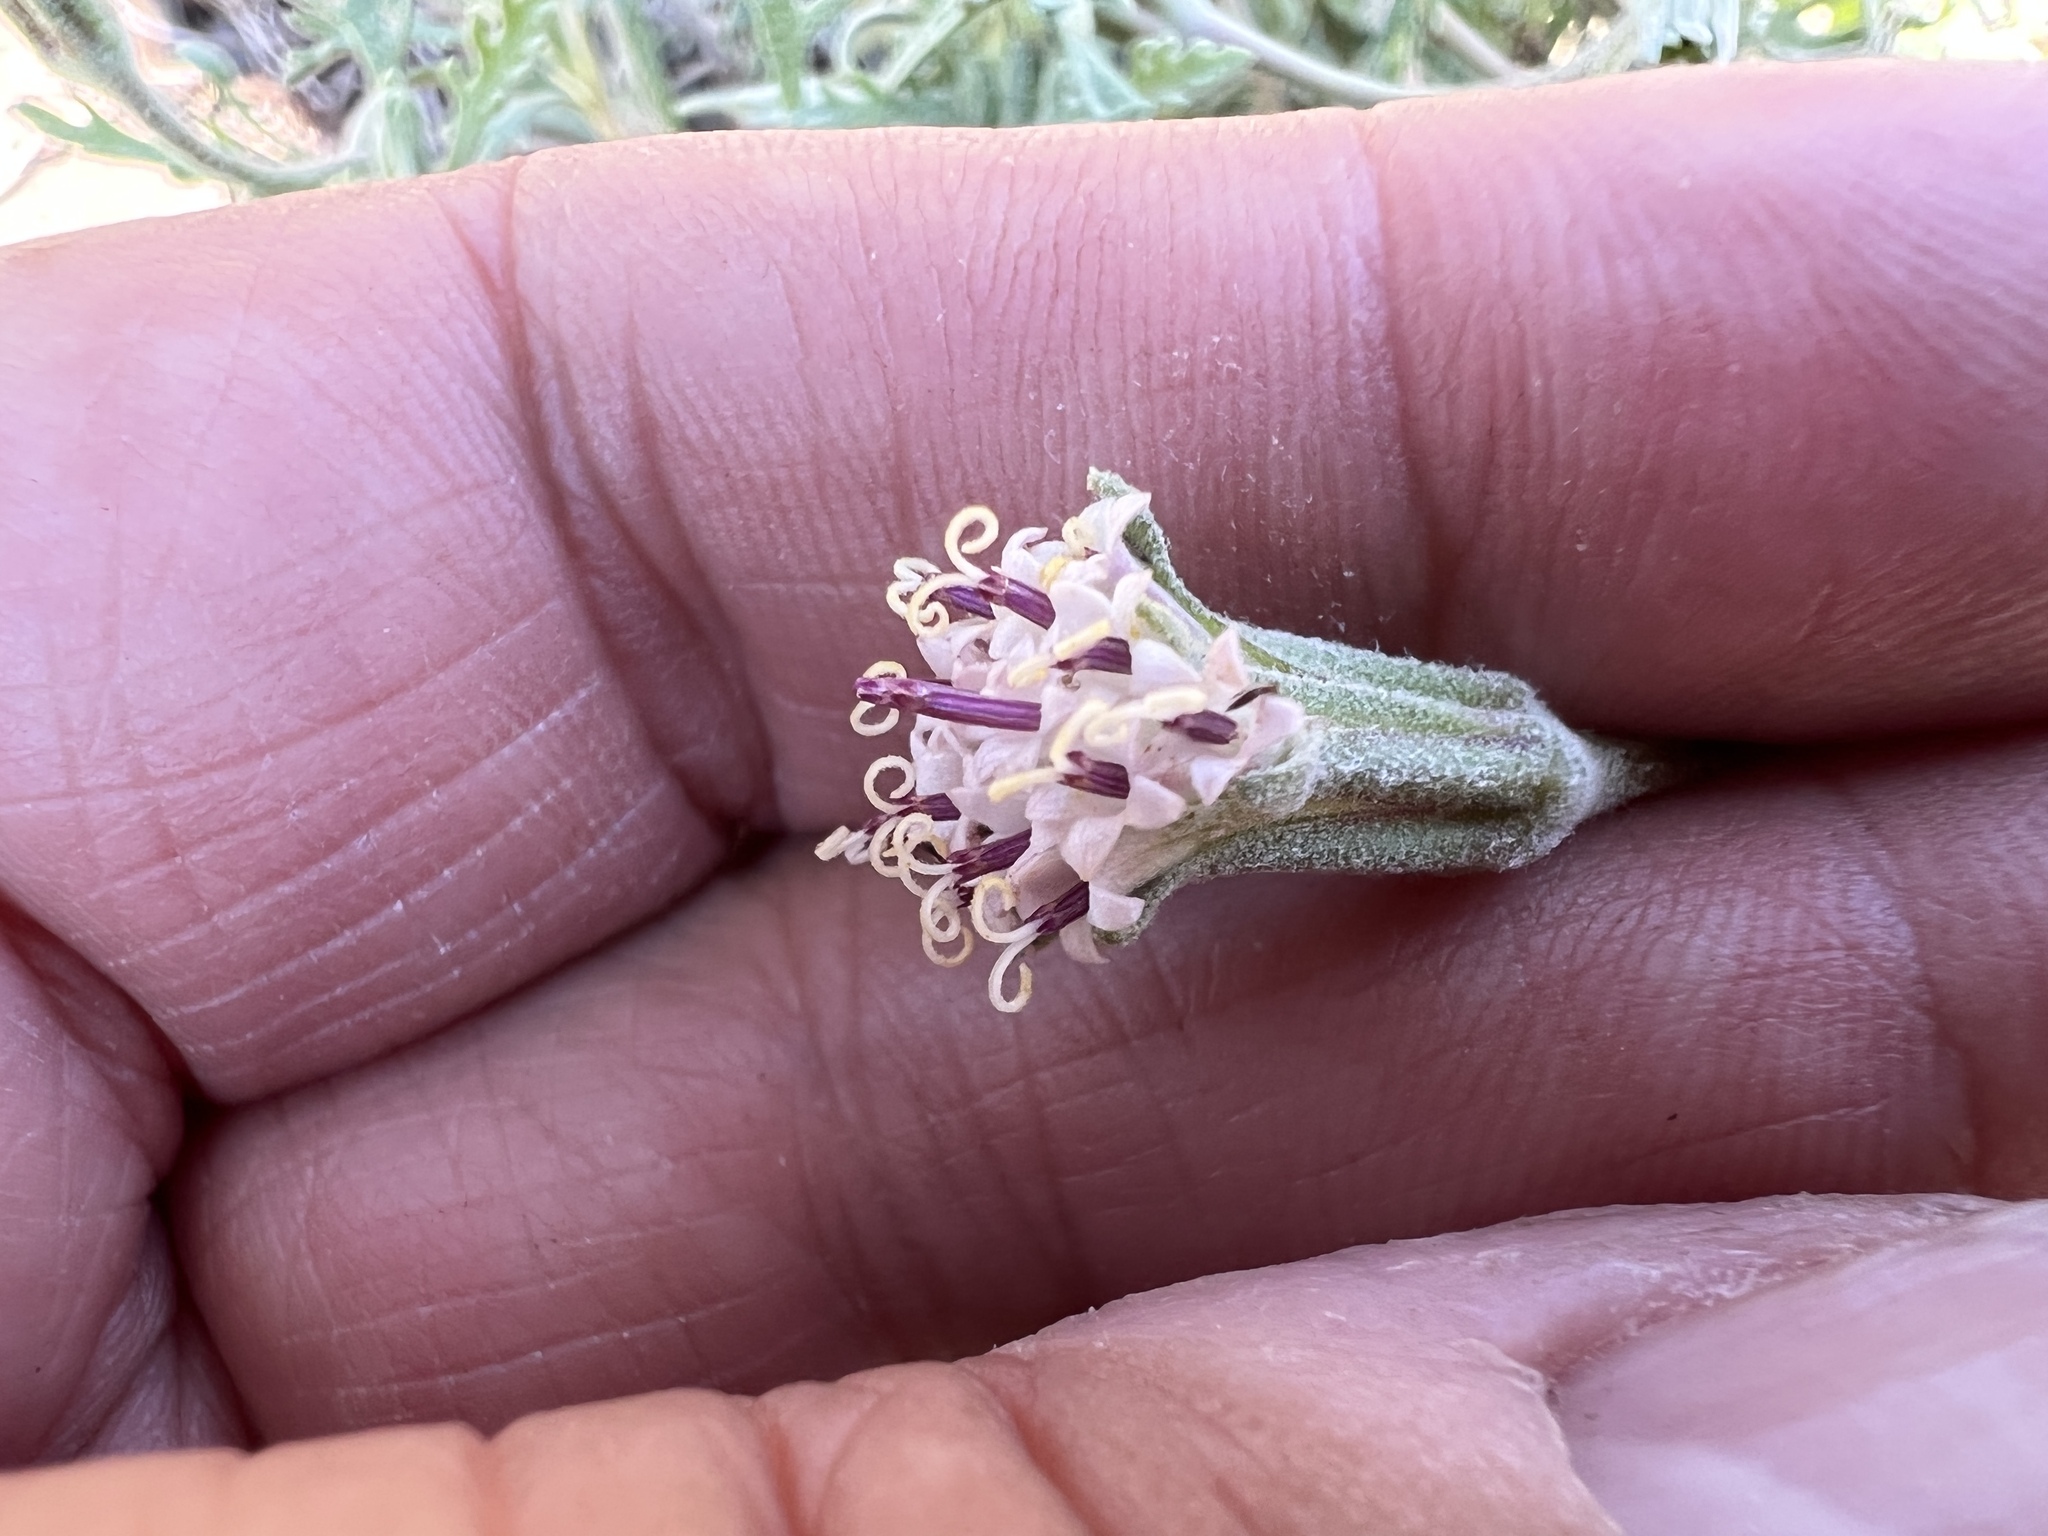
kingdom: Plantae
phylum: Tracheophyta
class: Magnoliopsida
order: Asterales
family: Asteraceae
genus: Chaenactis
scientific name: Chaenactis thompsonii
